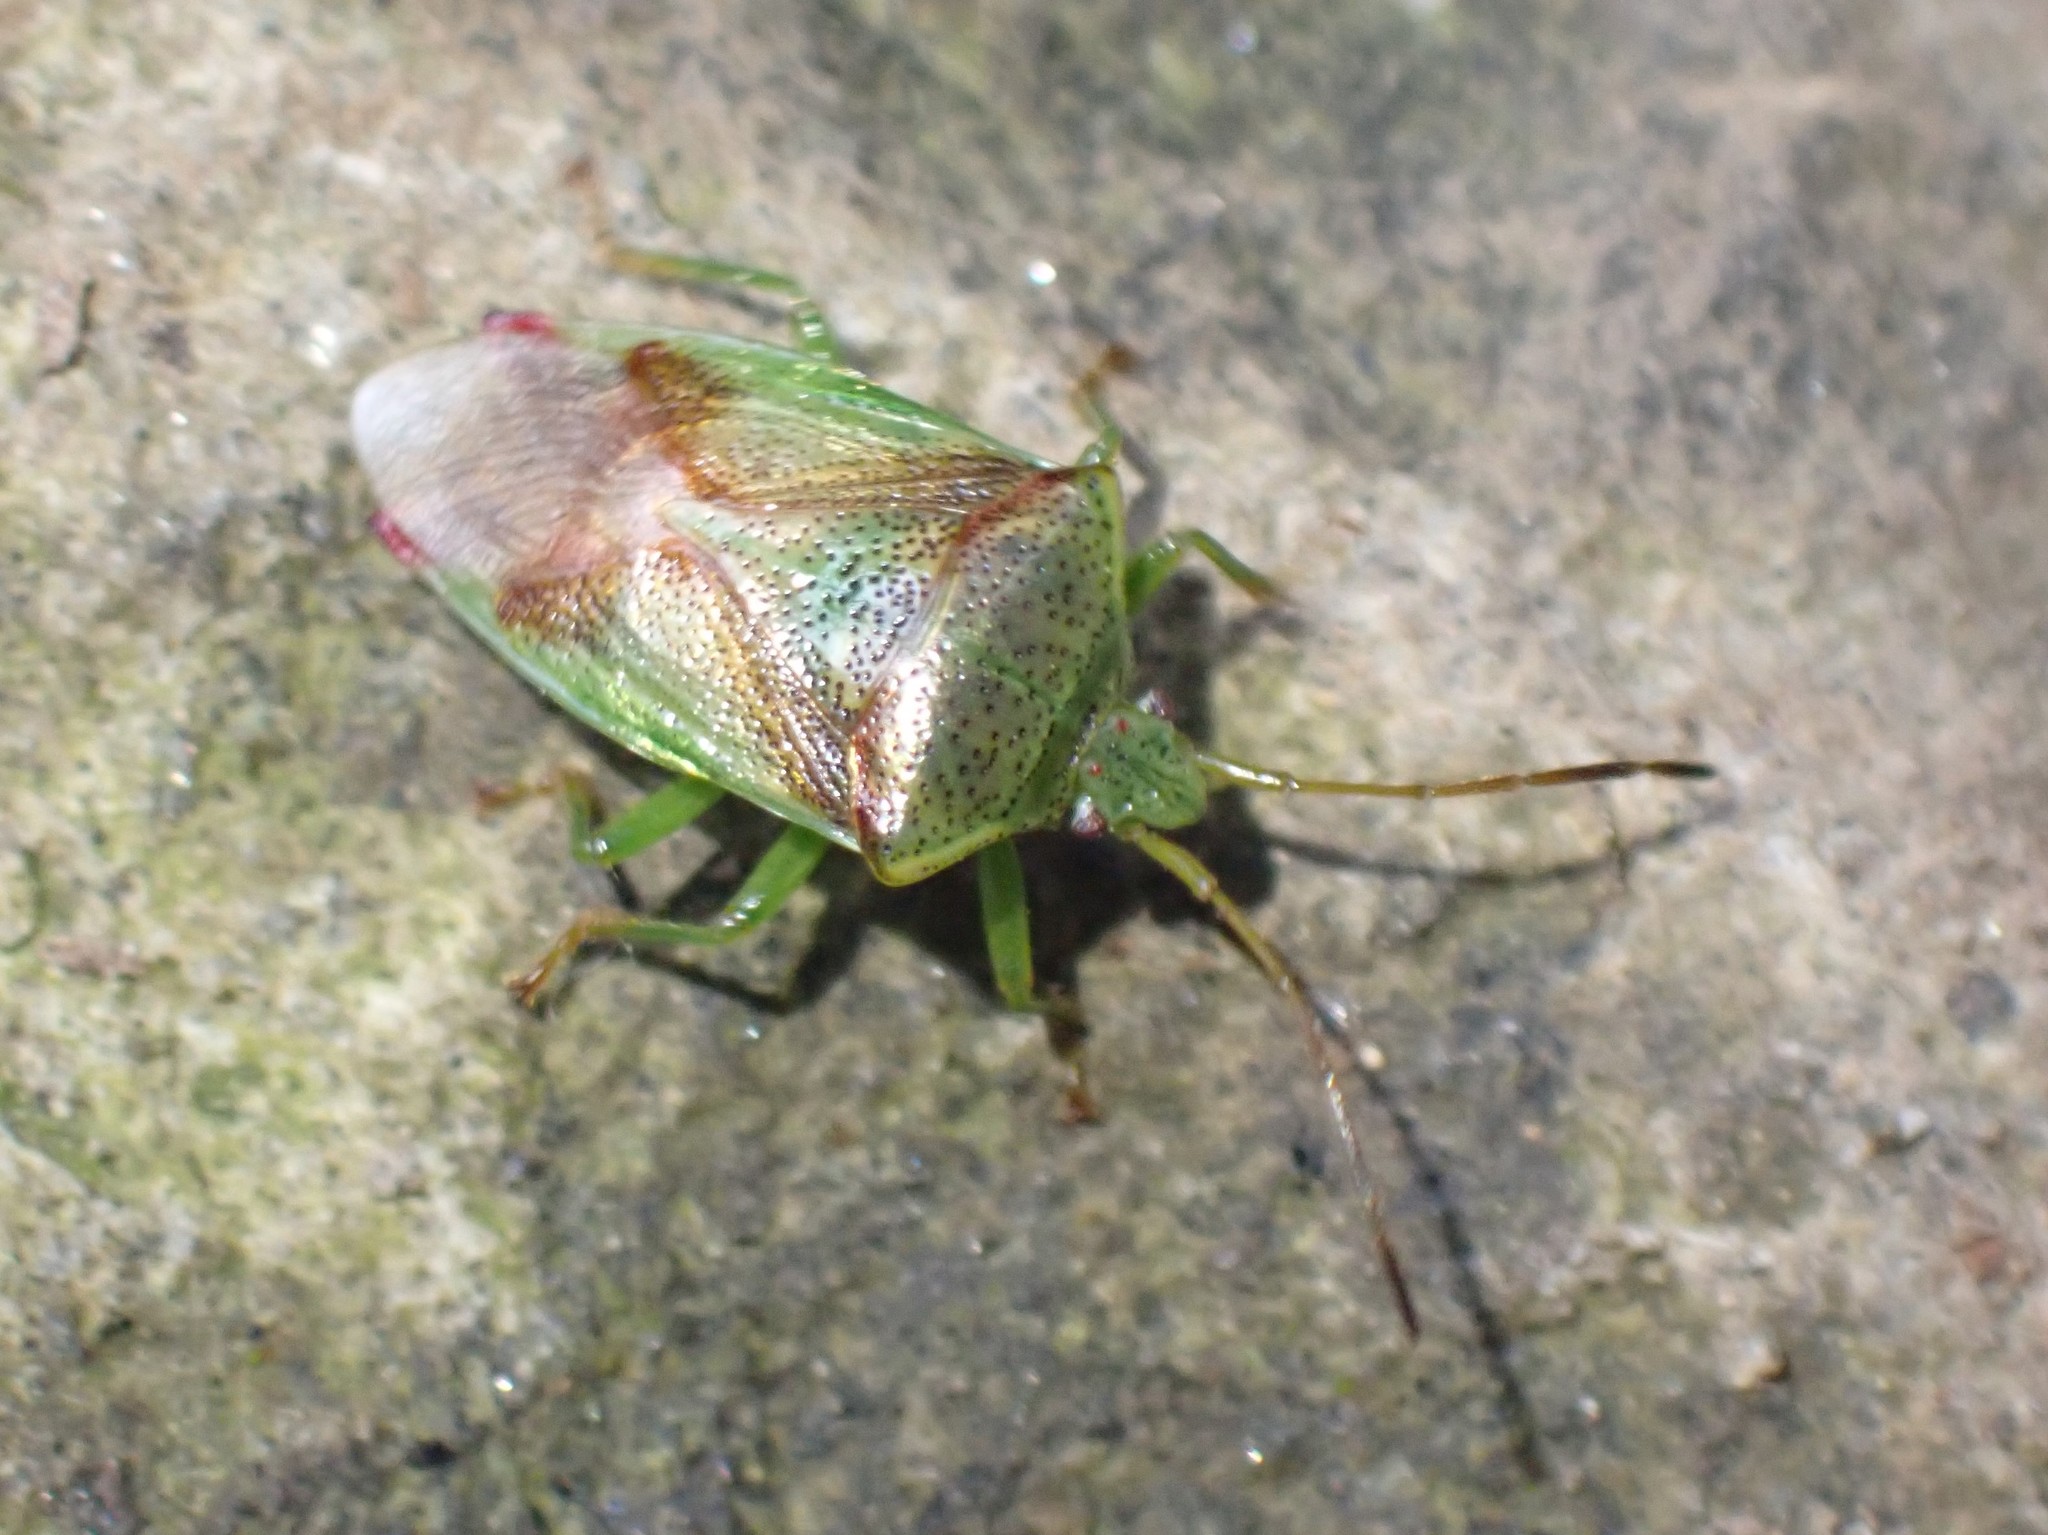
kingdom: Animalia
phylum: Arthropoda
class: Insecta
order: Hemiptera
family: Acanthosomatidae
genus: Elasmostethus
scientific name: Elasmostethus cruciatus
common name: Red-cross shield bug
